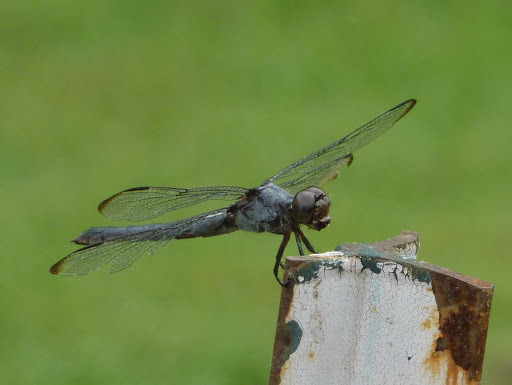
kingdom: Animalia
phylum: Arthropoda
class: Insecta
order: Odonata
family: Libellulidae
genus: Libellula
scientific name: Libellula incesta
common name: Slaty skimmer
